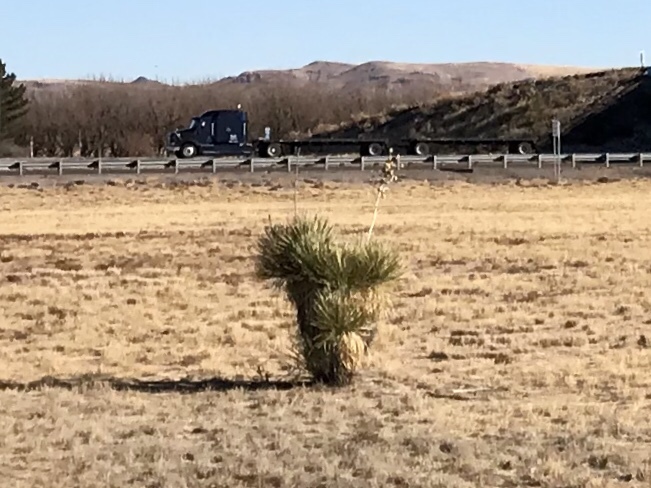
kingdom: Plantae
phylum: Tracheophyta
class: Liliopsida
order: Asparagales
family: Asparagaceae
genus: Yucca
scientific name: Yucca elata
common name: Palmella
